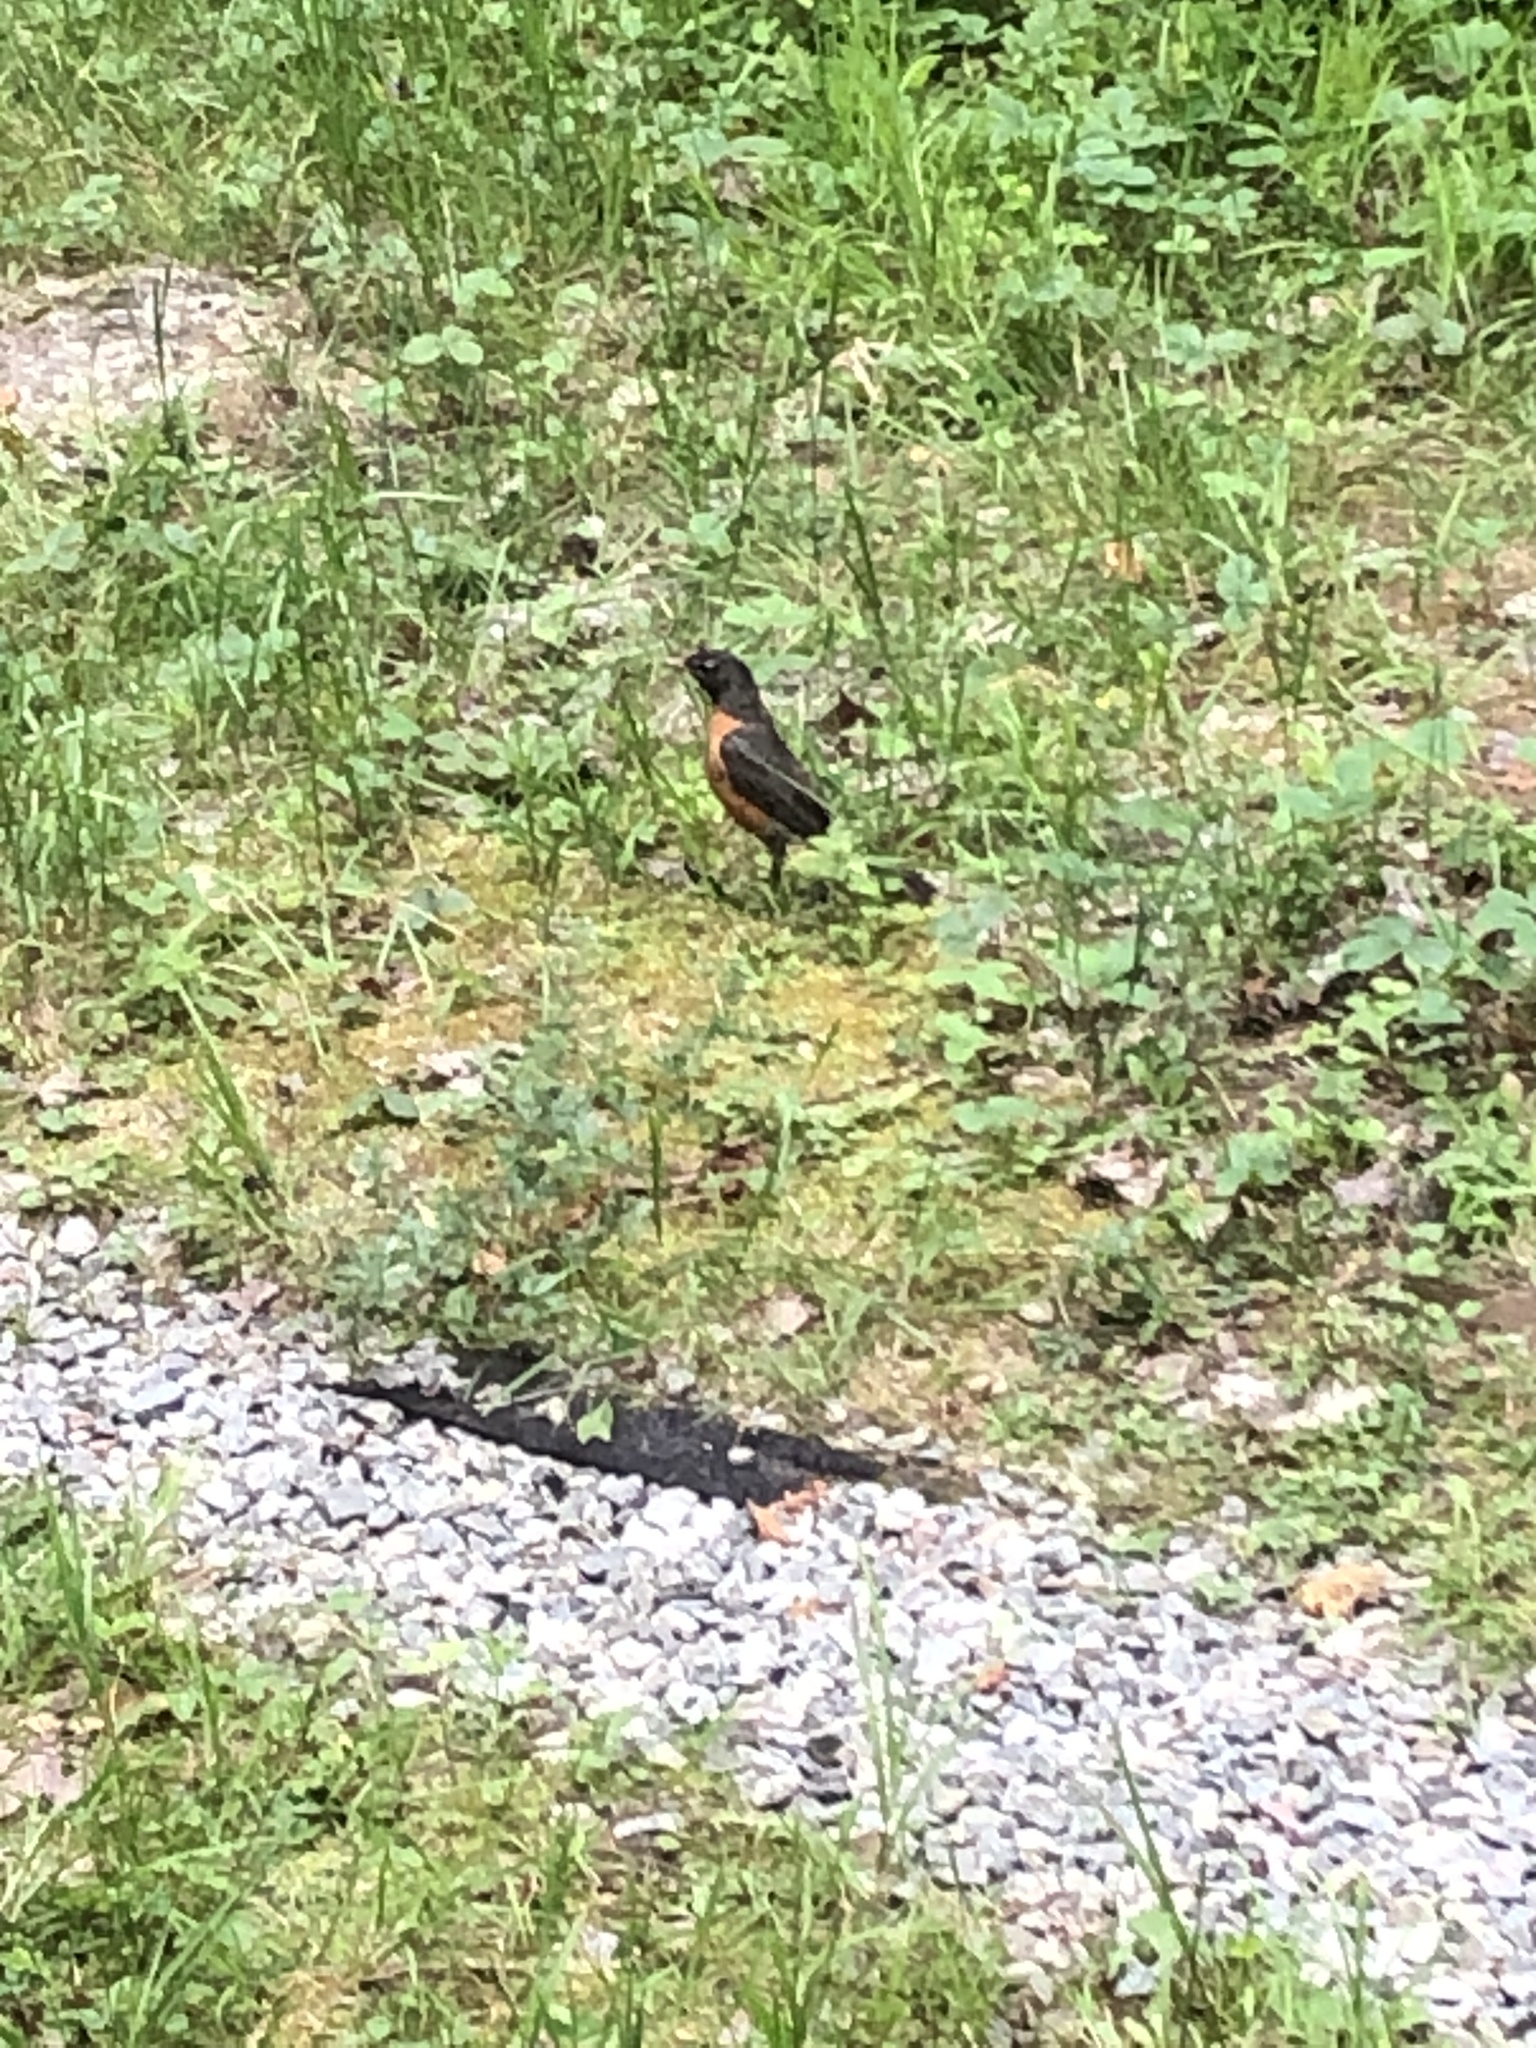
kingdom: Animalia
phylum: Chordata
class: Aves
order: Passeriformes
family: Turdidae
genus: Turdus
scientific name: Turdus migratorius
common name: American robin
